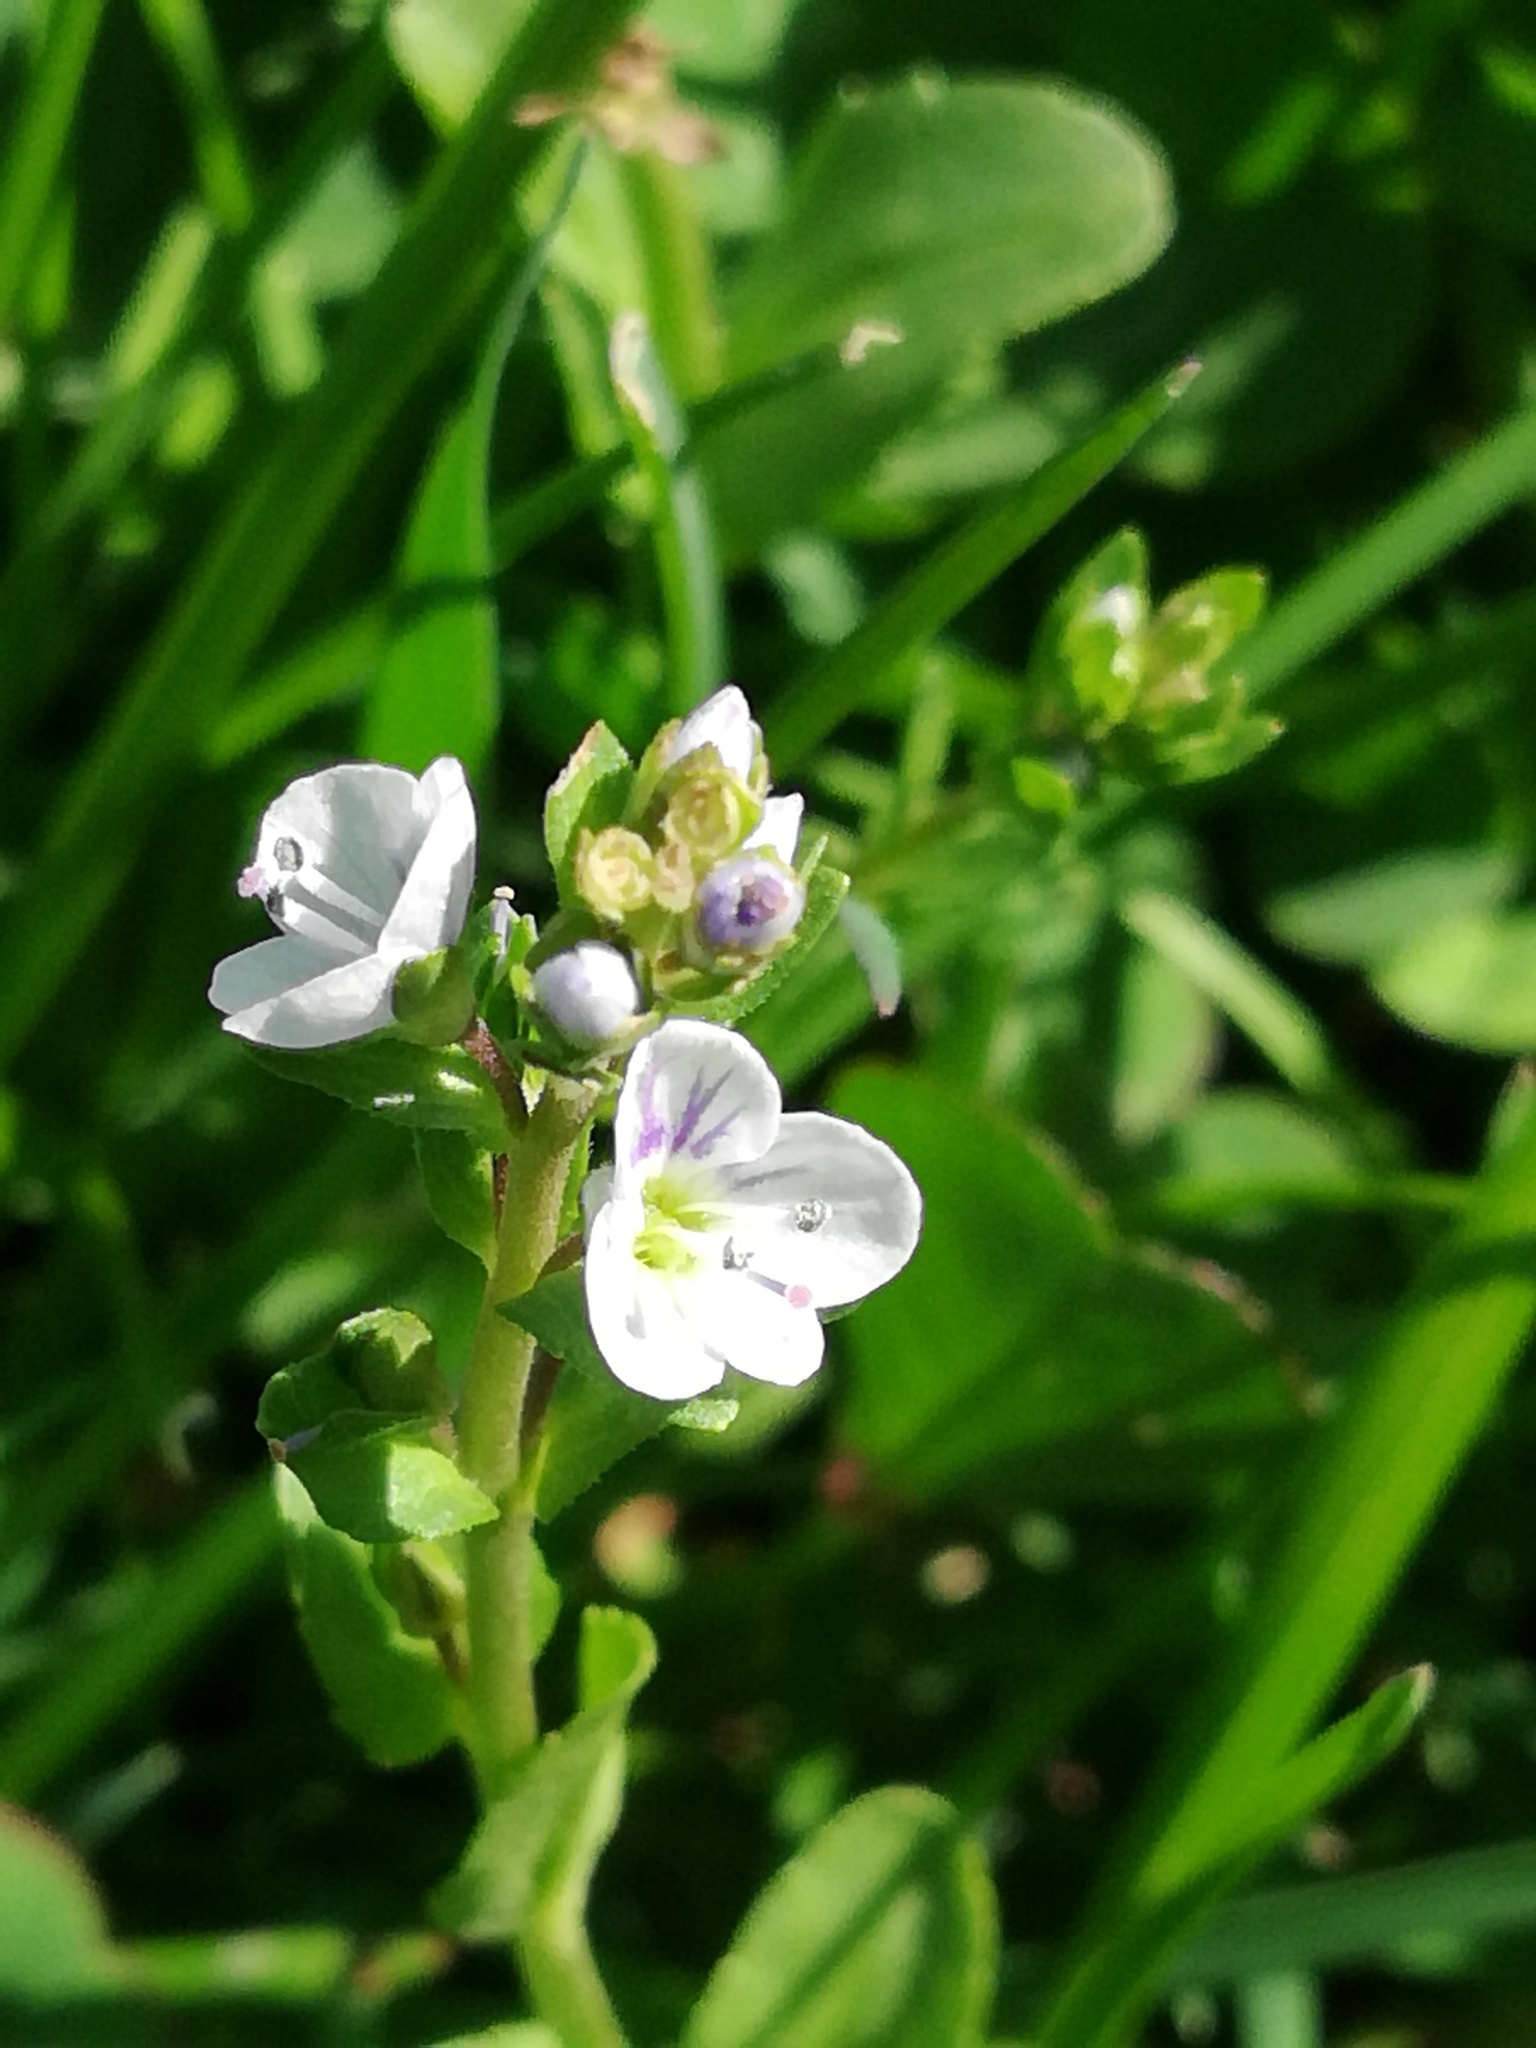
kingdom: Plantae
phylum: Tracheophyta
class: Magnoliopsida
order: Lamiales
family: Plantaginaceae
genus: Veronica
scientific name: Veronica serpyllifolia
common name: Thyme-leaved speedwell
